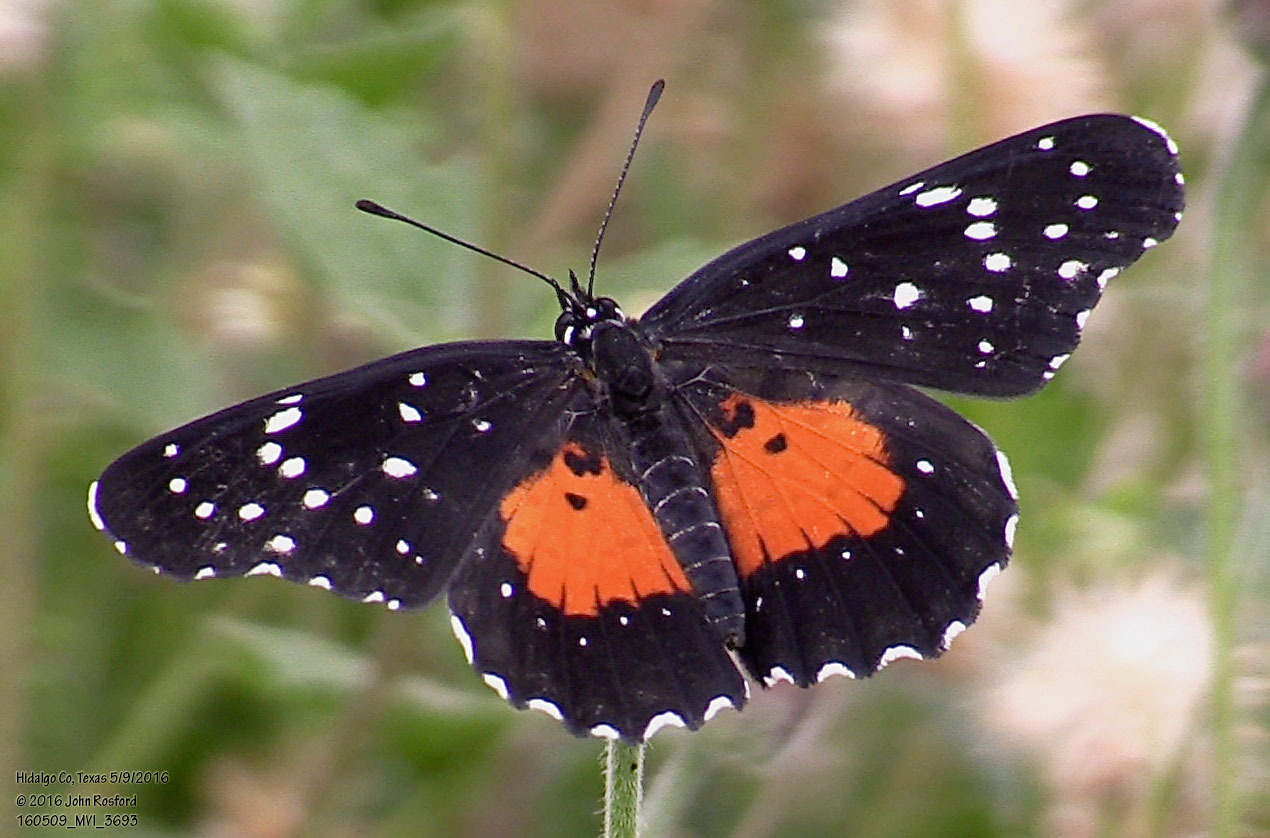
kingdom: Animalia
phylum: Arthropoda
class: Insecta
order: Lepidoptera
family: Nymphalidae
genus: Chlosyne
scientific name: Chlosyne janais
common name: Crimson patch
